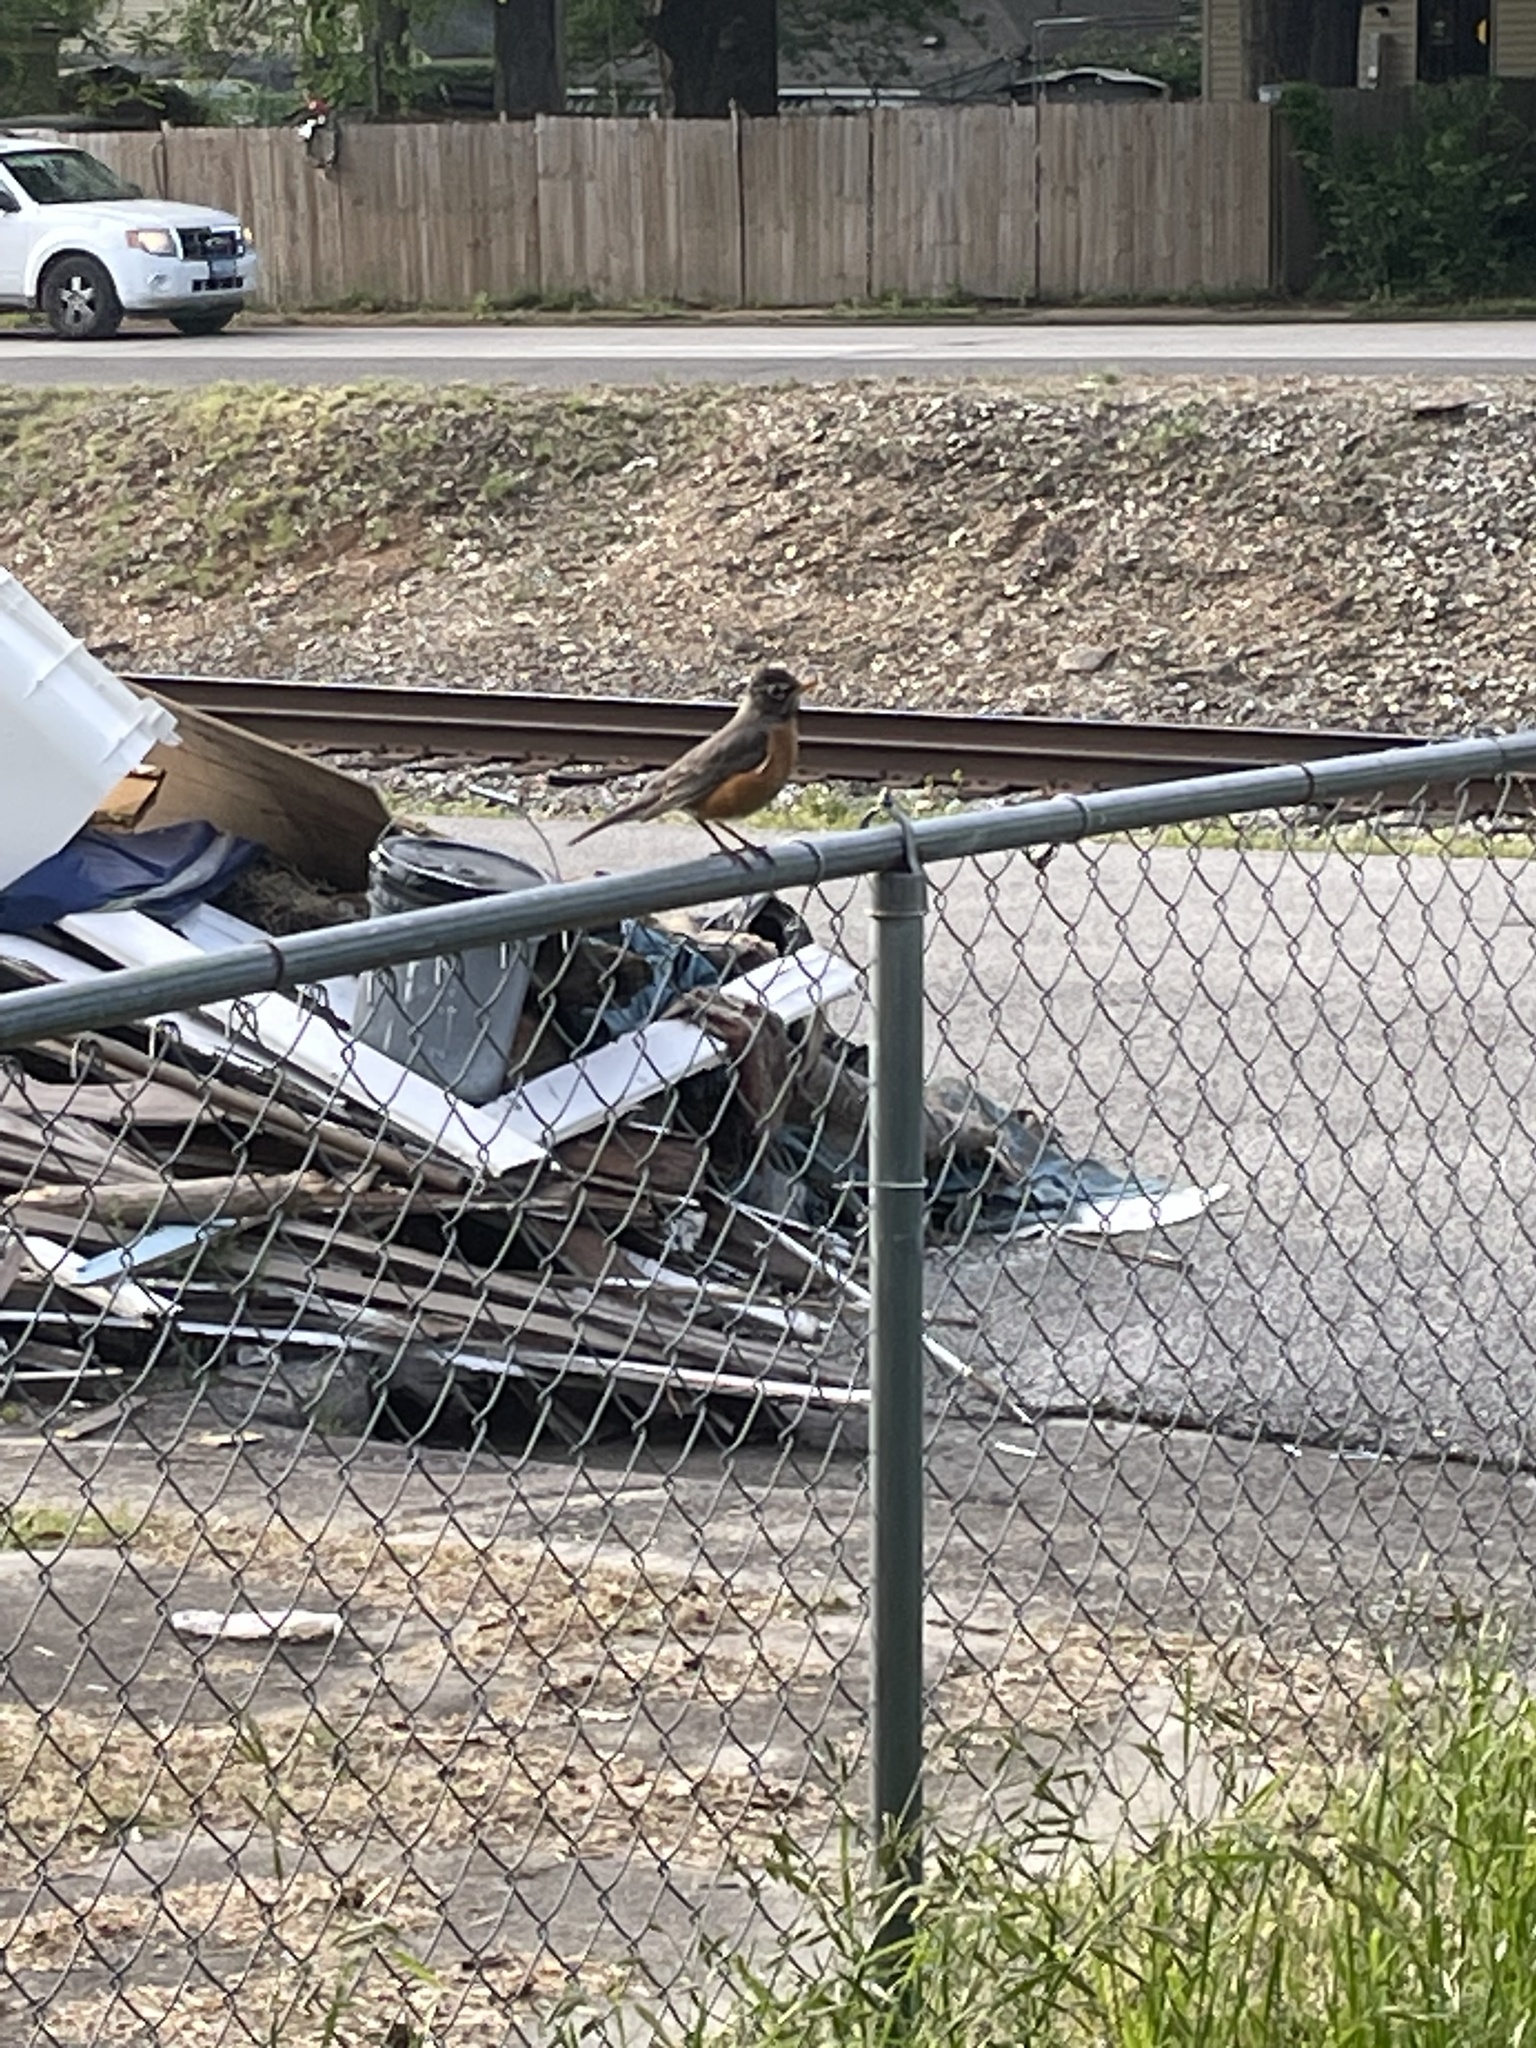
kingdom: Animalia
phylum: Chordata
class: Aves
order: Passeriformes
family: Turdidae
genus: Turdus
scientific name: Turdus migratorius
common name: American robin
